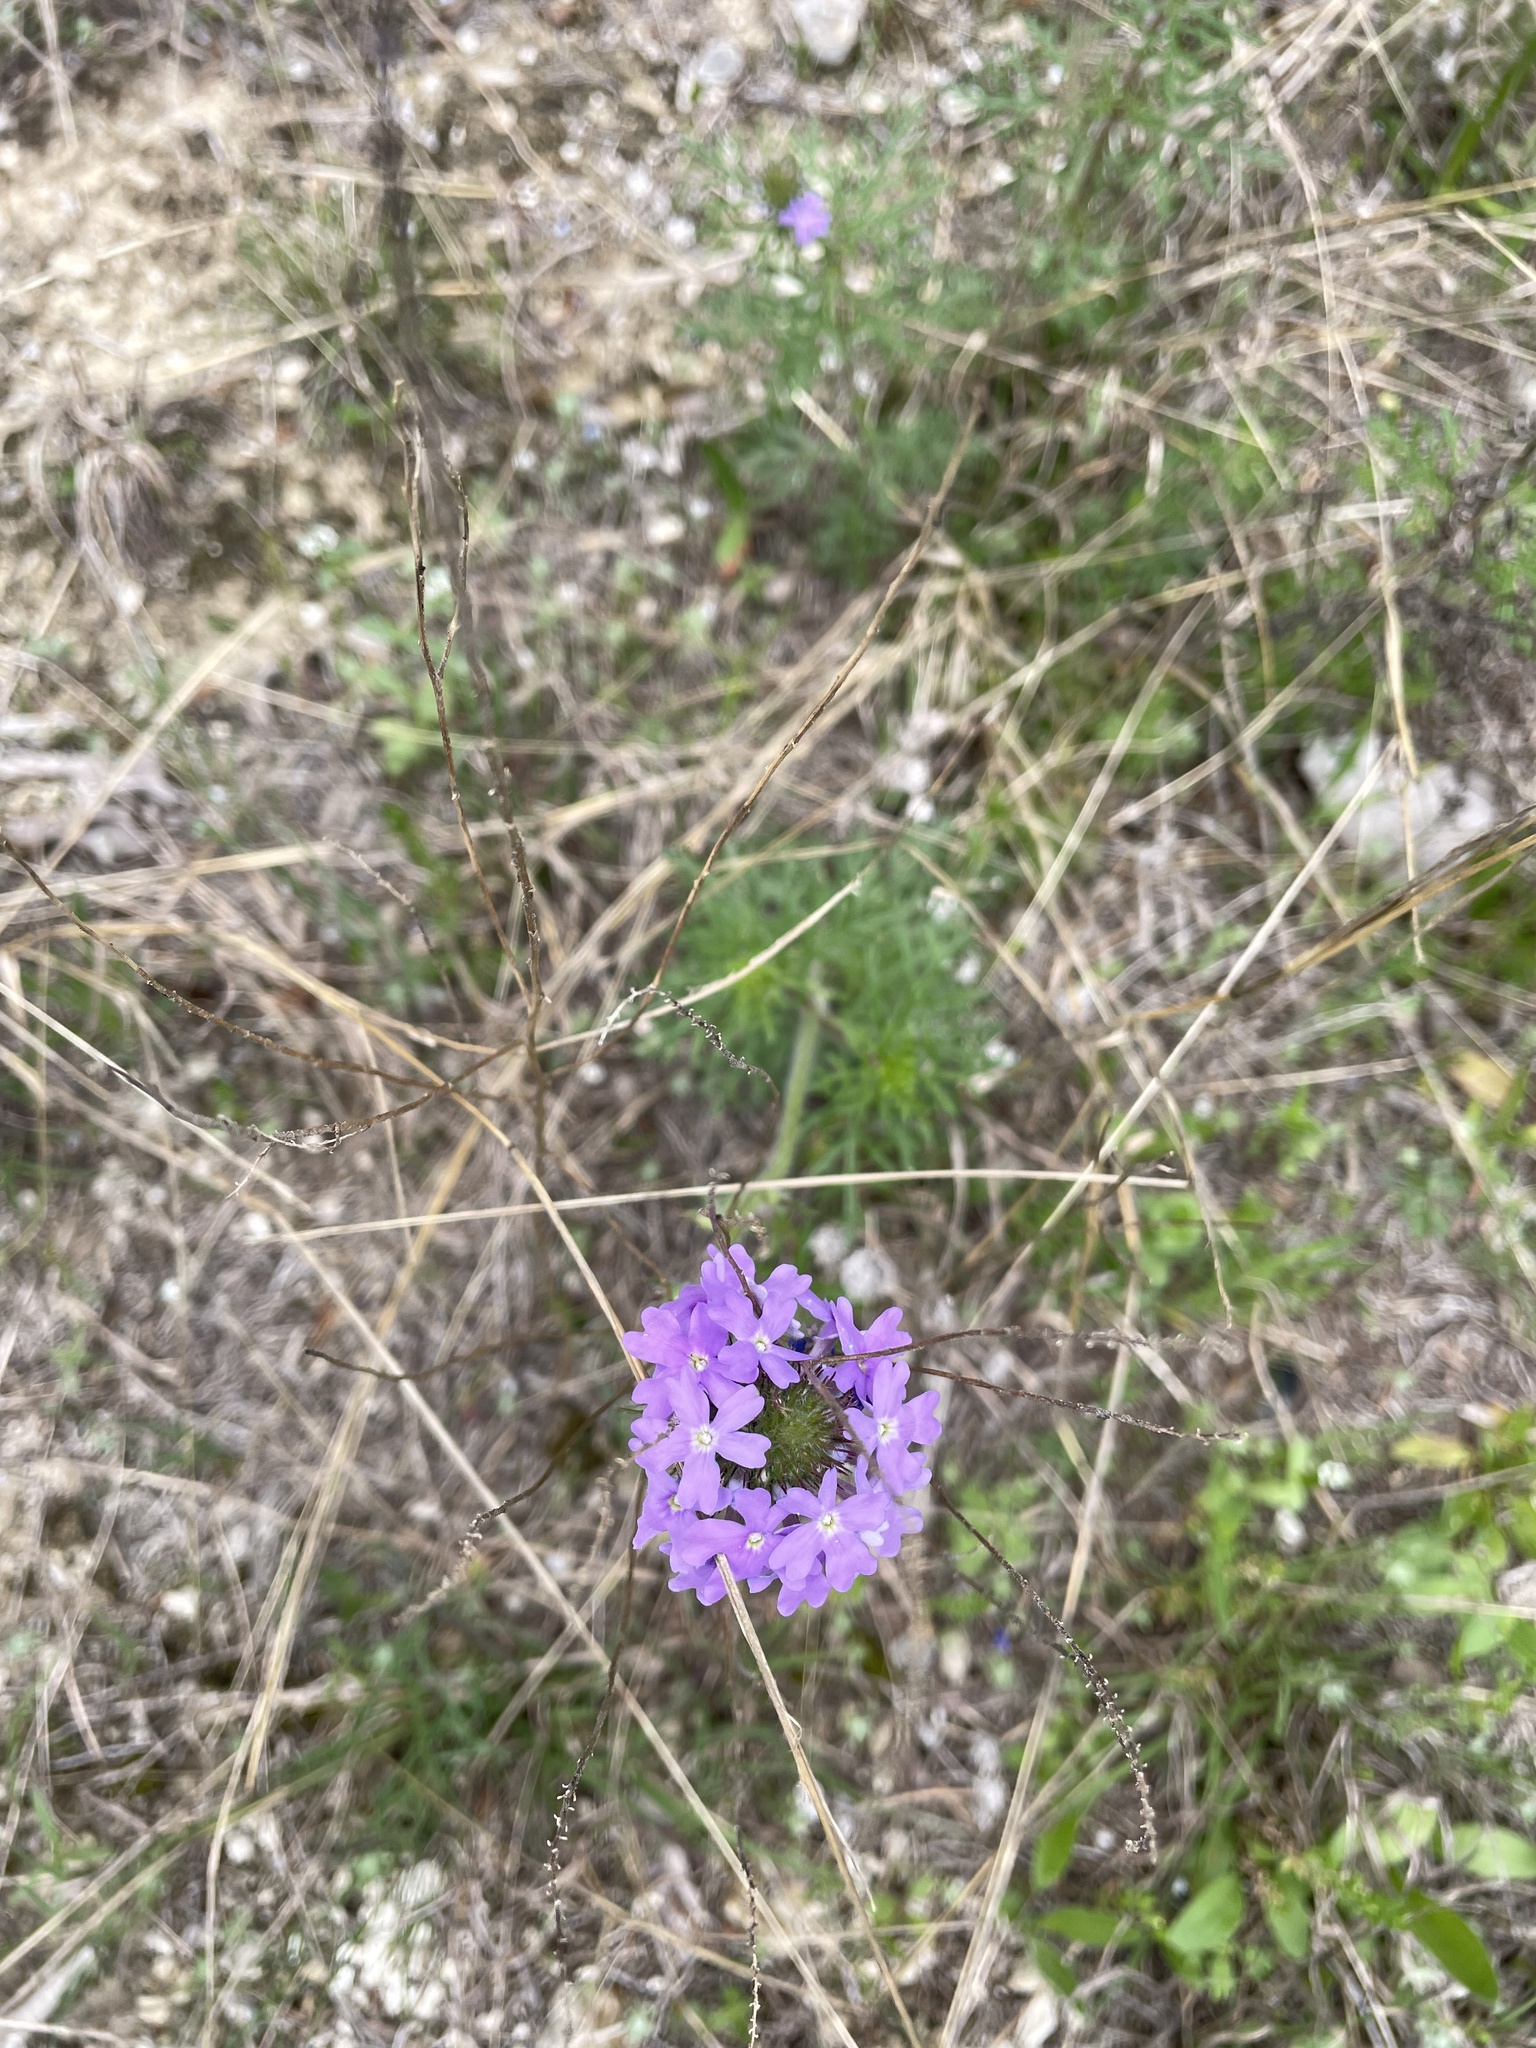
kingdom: Plantae
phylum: Tracheophyta
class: Magnoliopsida
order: Lamiales
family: Verbenaceae
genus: Verbena
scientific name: Verbena bipinnatifida
